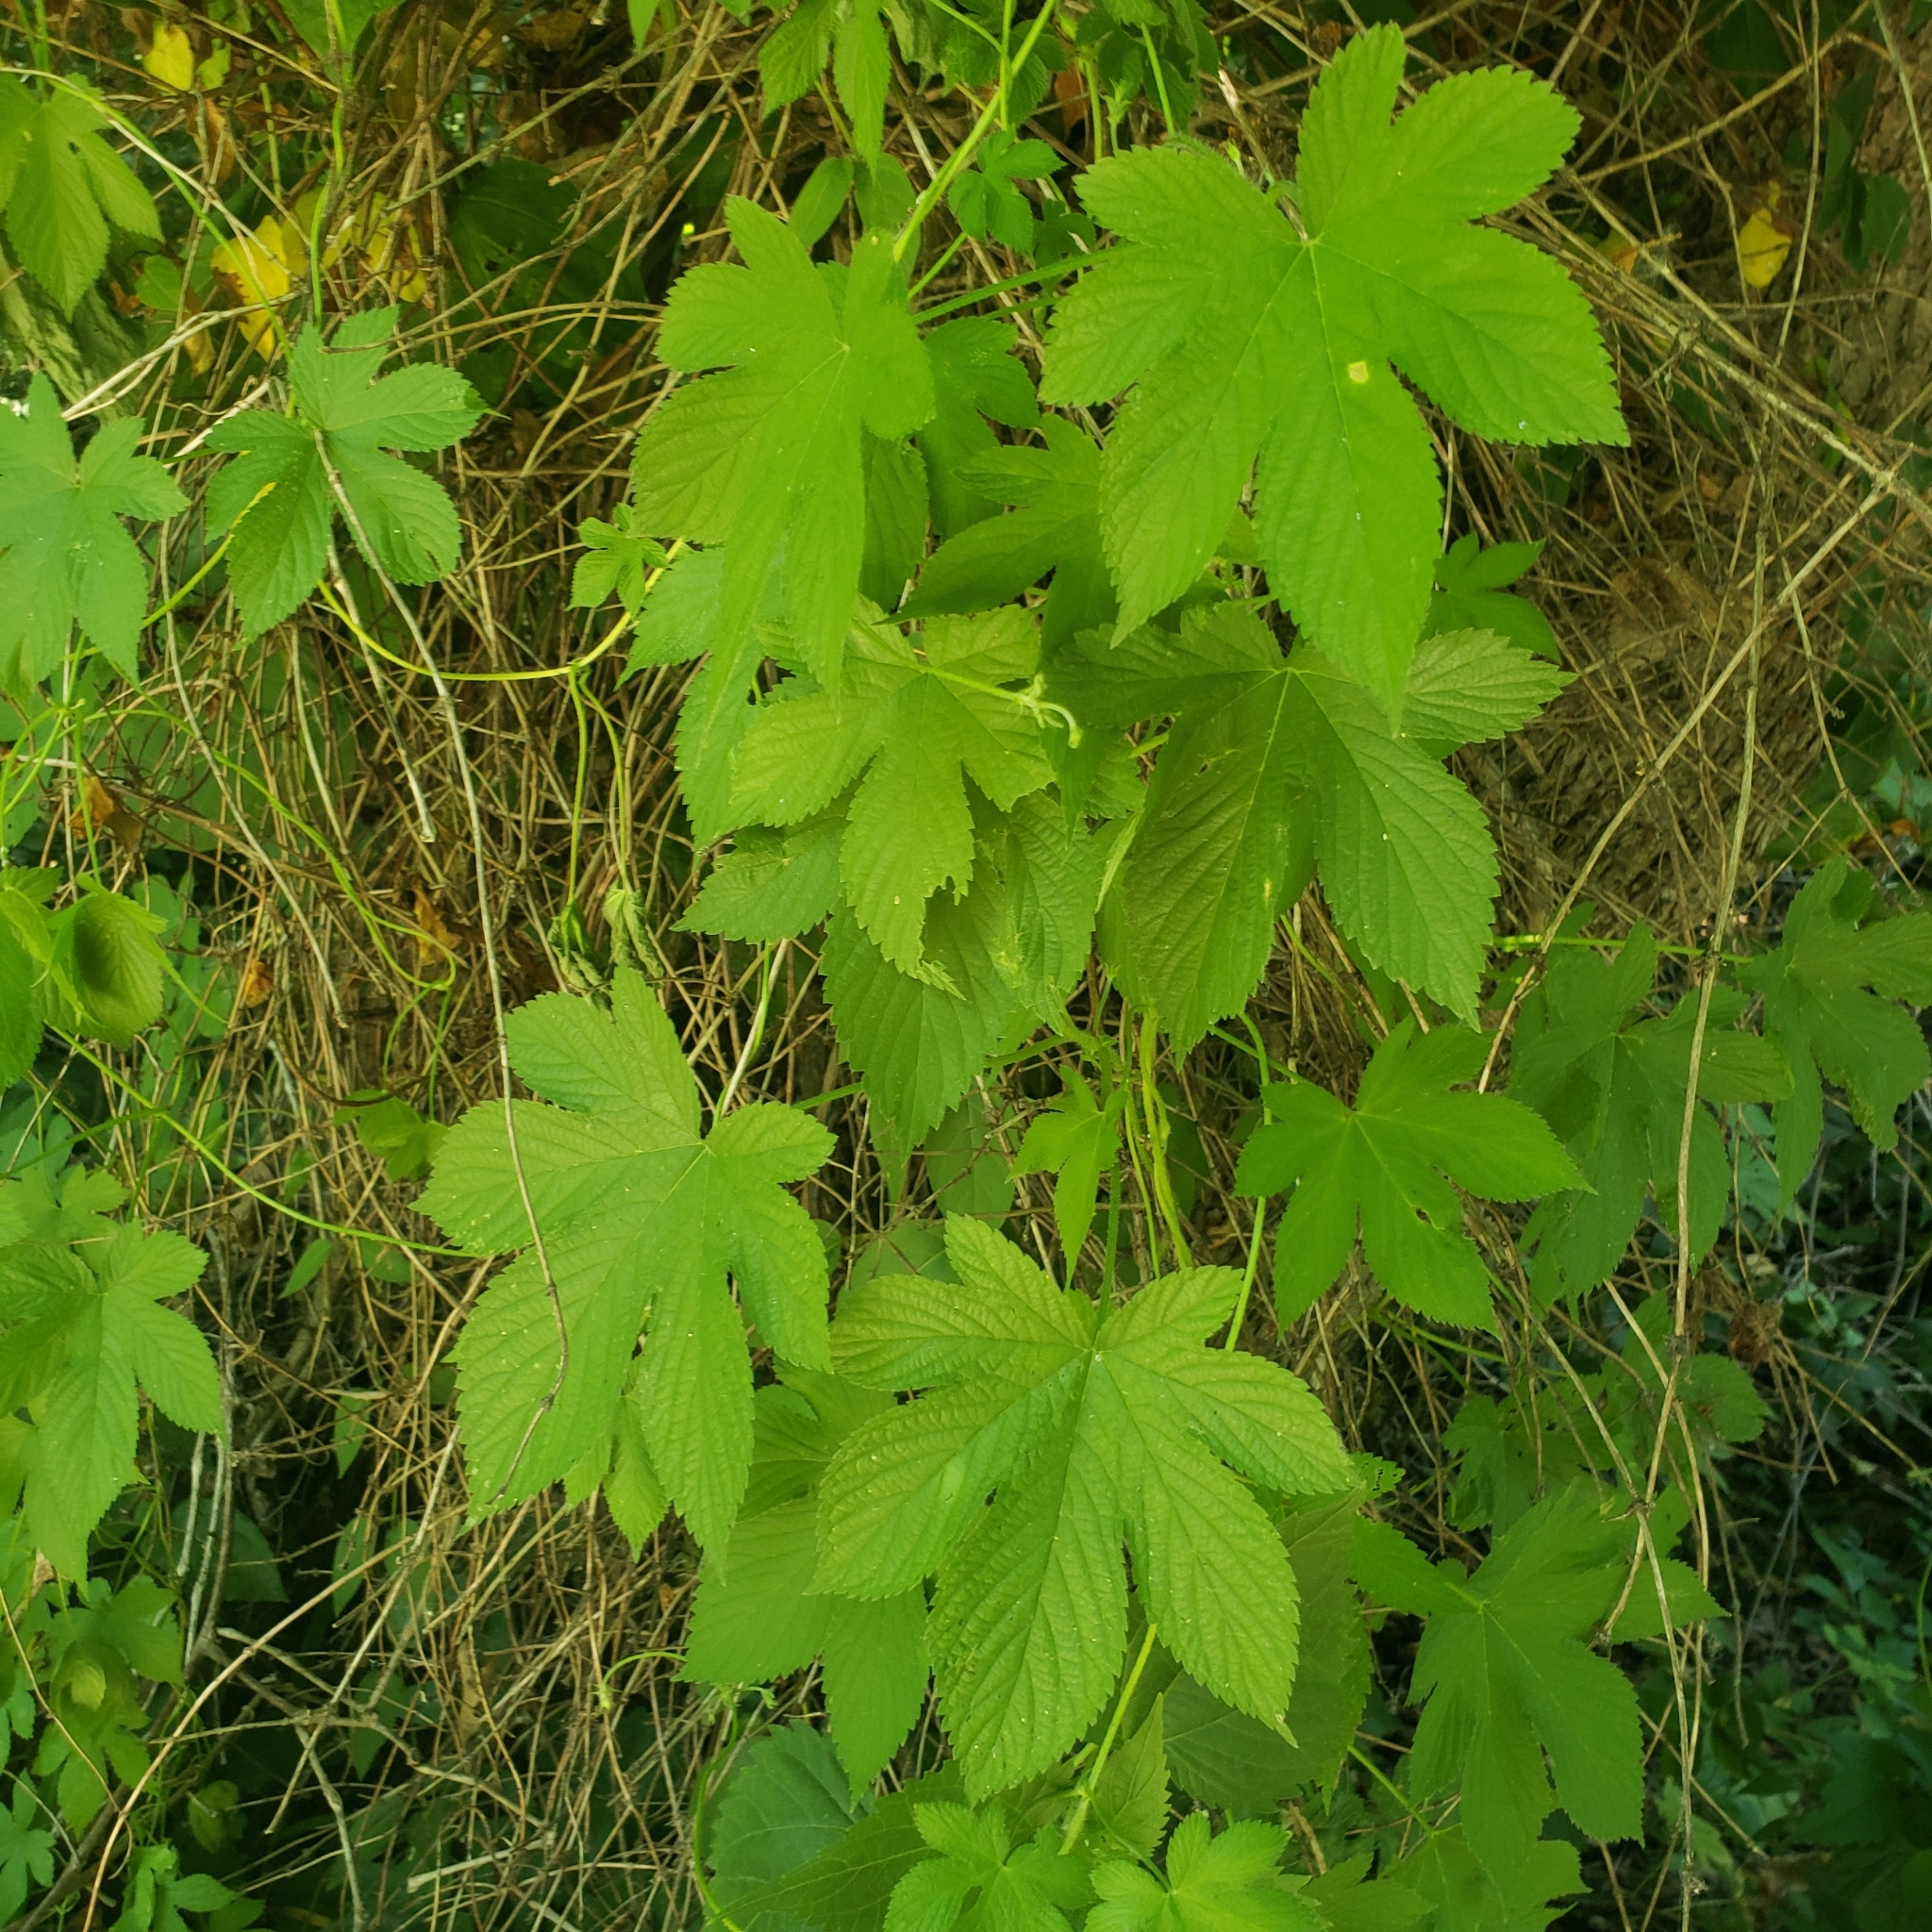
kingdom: Plantae
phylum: Tracheophyta
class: Magnoliopsida
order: Rosales
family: Cannabaceae
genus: Humulus
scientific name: Humulus scandens
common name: Japanese hop
